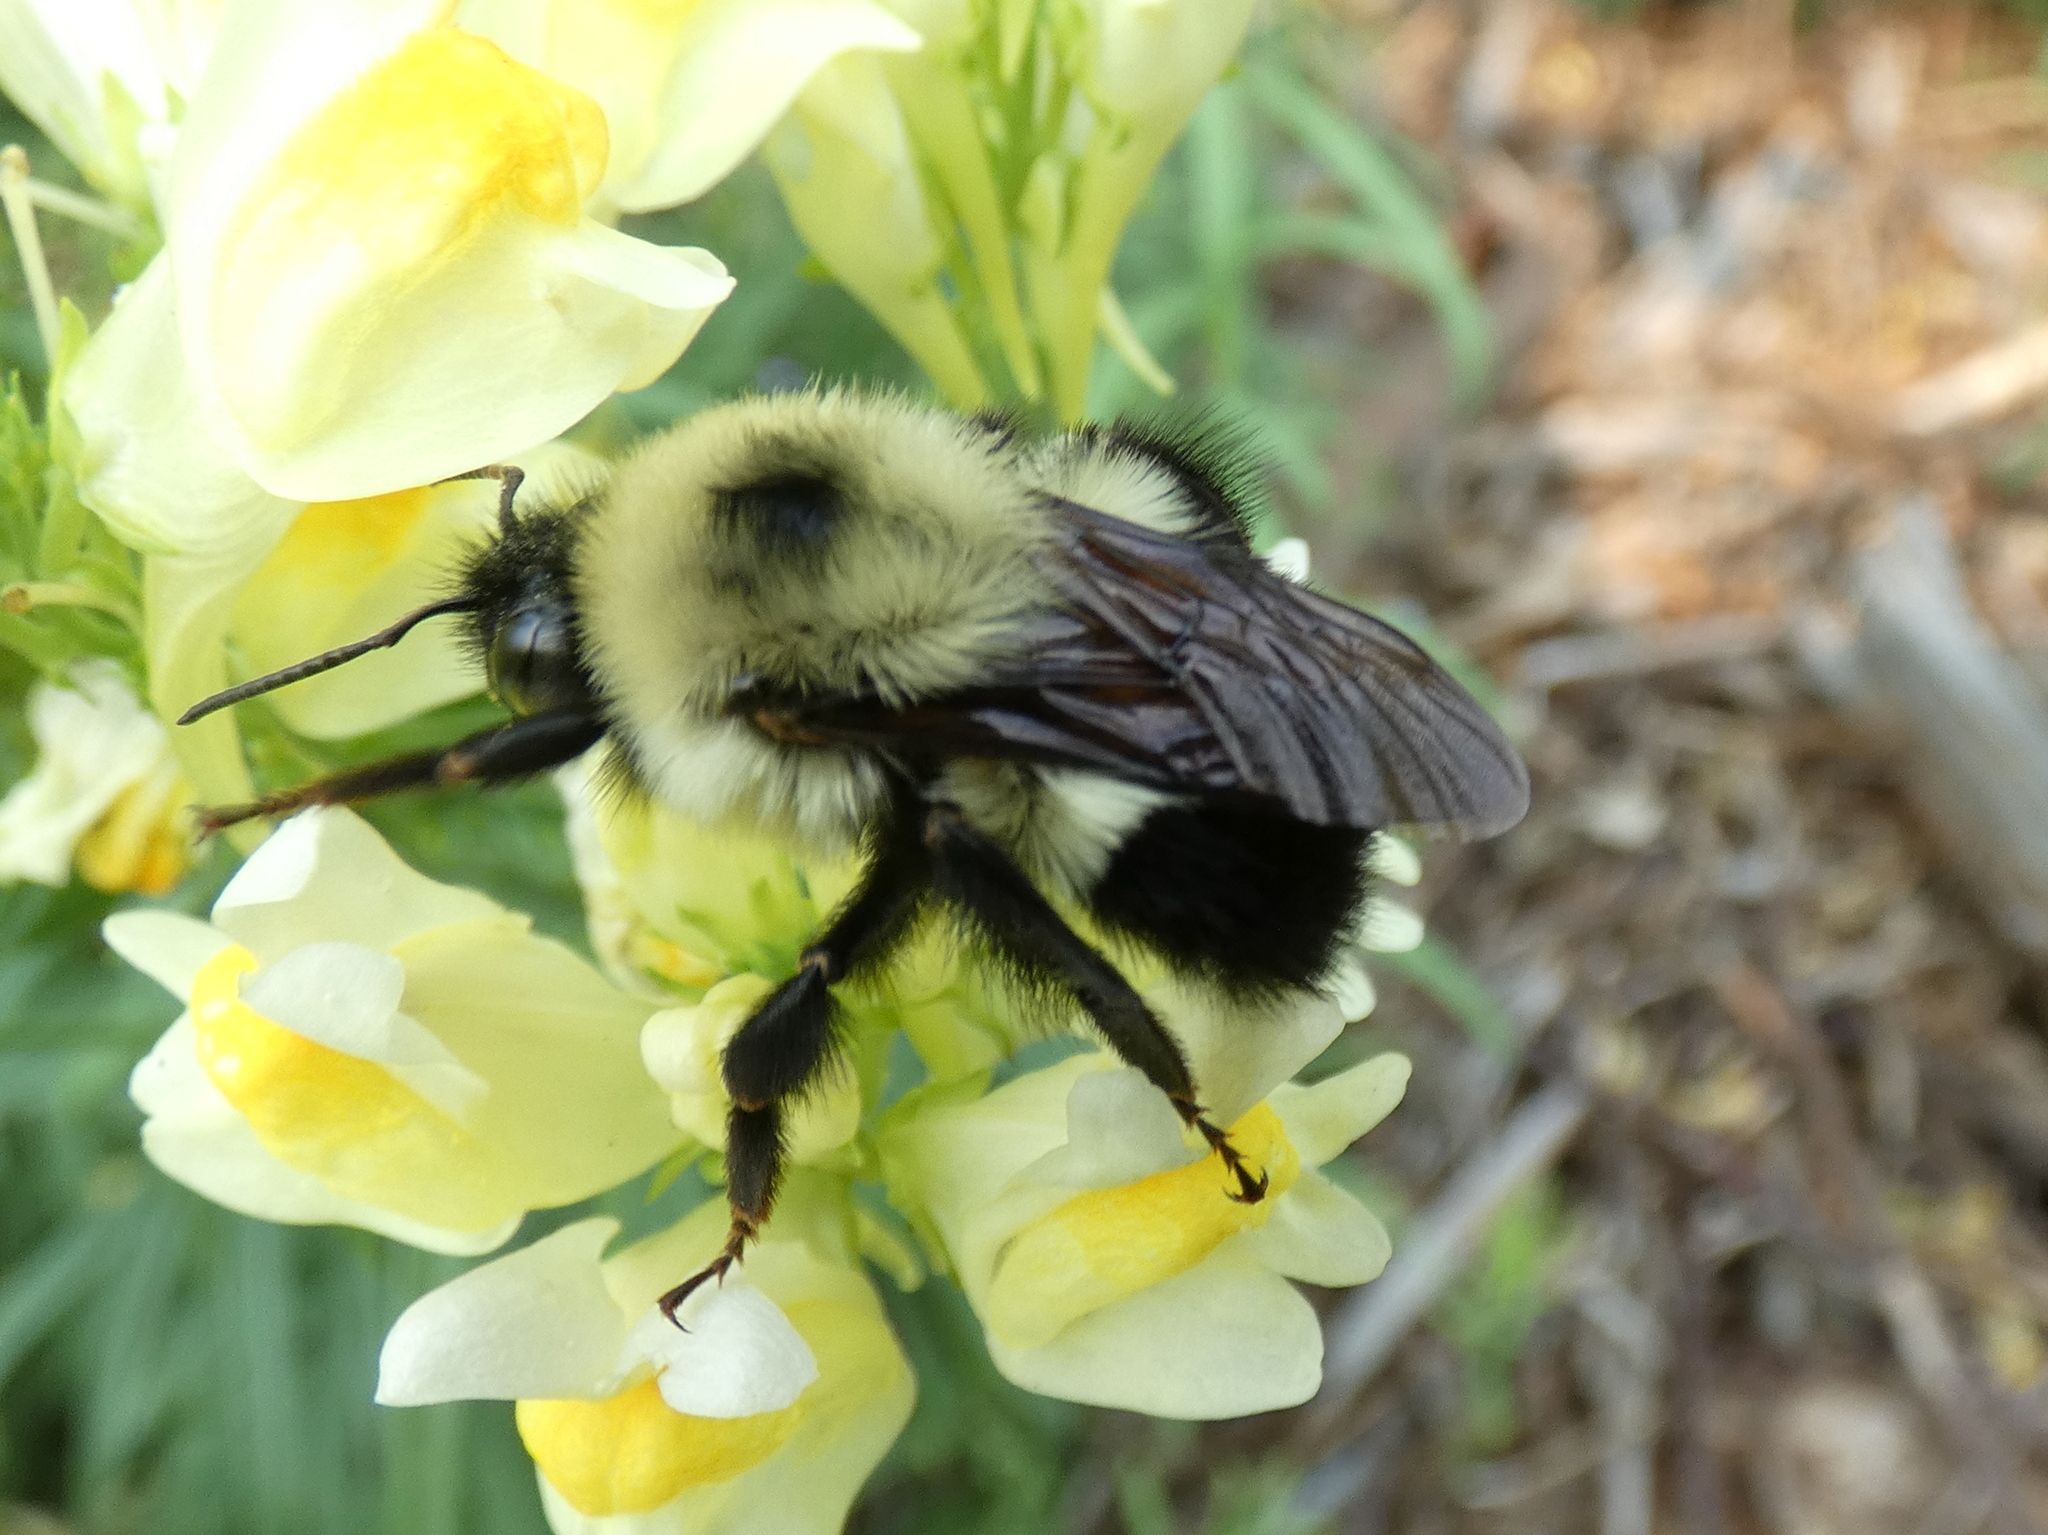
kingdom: Animalia
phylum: Arthropoda
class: Insecta
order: Hymenoptera
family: Apidae
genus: Bombus
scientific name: Bombus bimaculatus
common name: Two-spotted bumble bee
